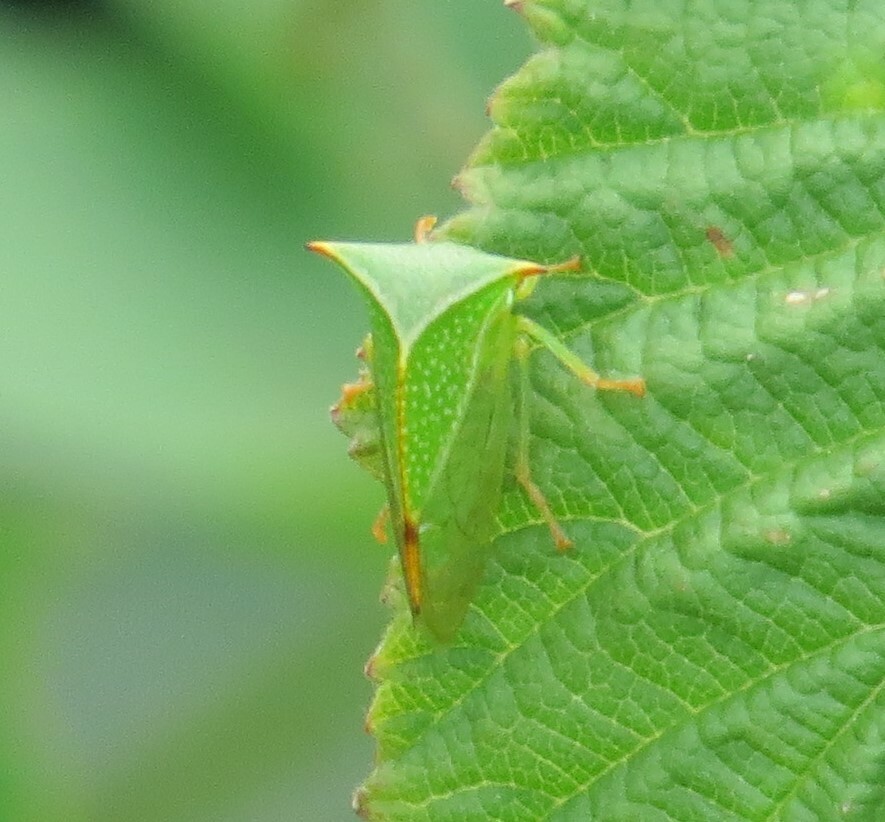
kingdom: Animalia
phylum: Arthropoda
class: Insecta
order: Hemiptera
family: Membracidae
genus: Stictocephala
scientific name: Stictocephala bisonia
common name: American buffalo treehopper
